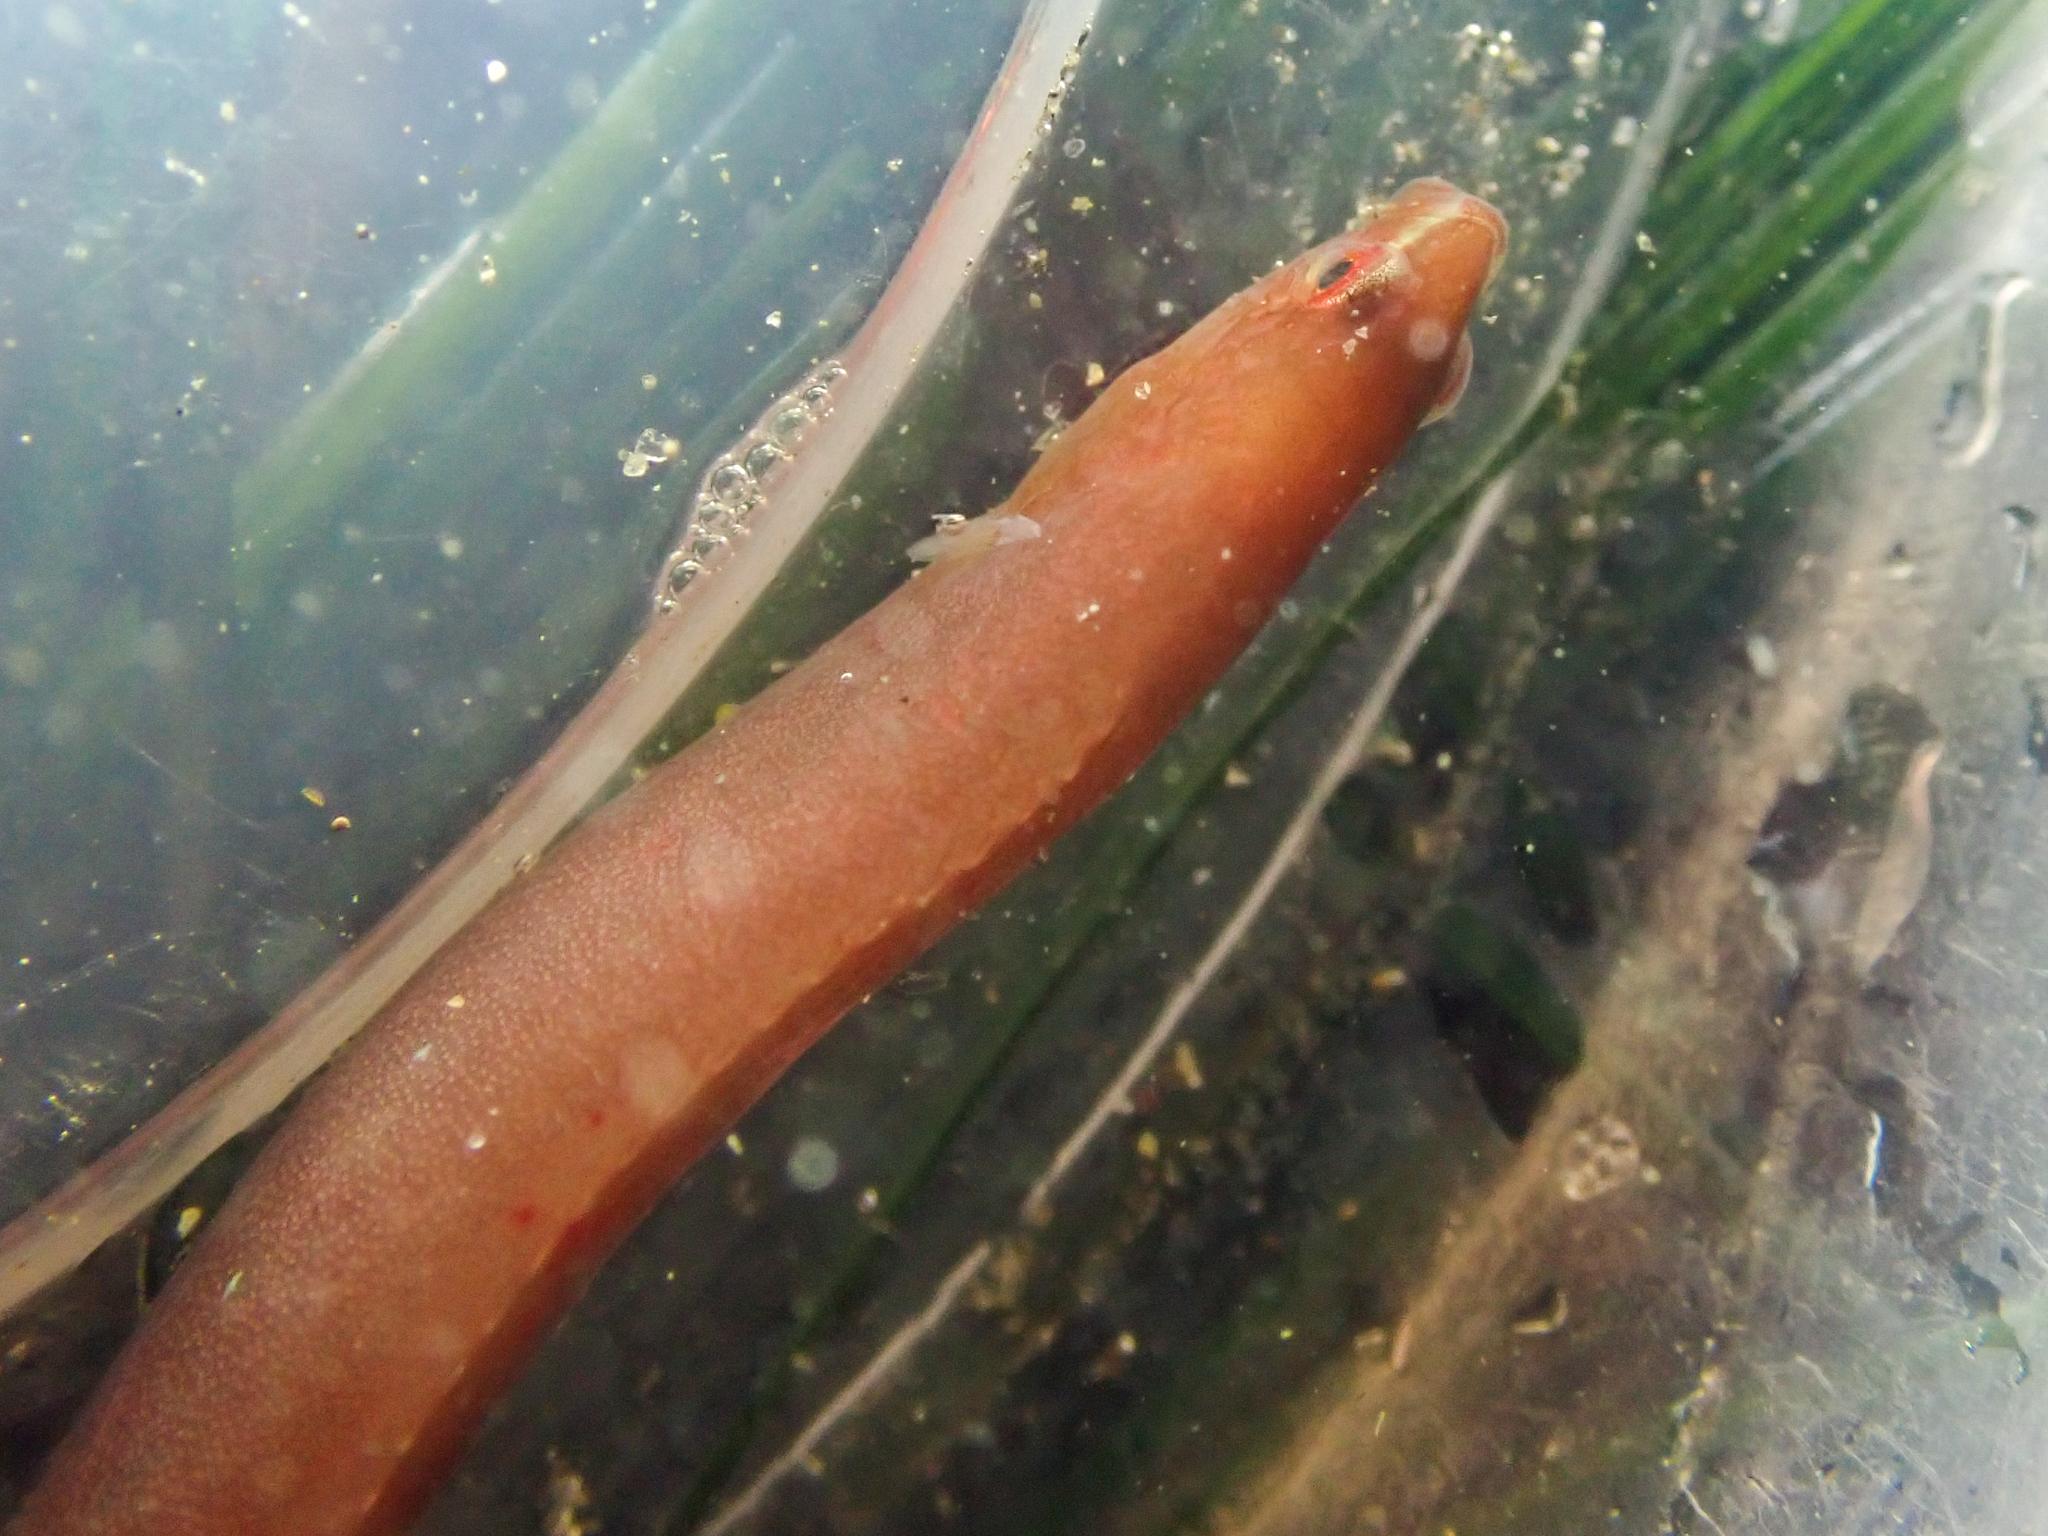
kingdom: Animalia
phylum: Chordata
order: Perciformes
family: Pholidae
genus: Apodichthys
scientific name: Apodichthys fucorum
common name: Rockweed gunnel
